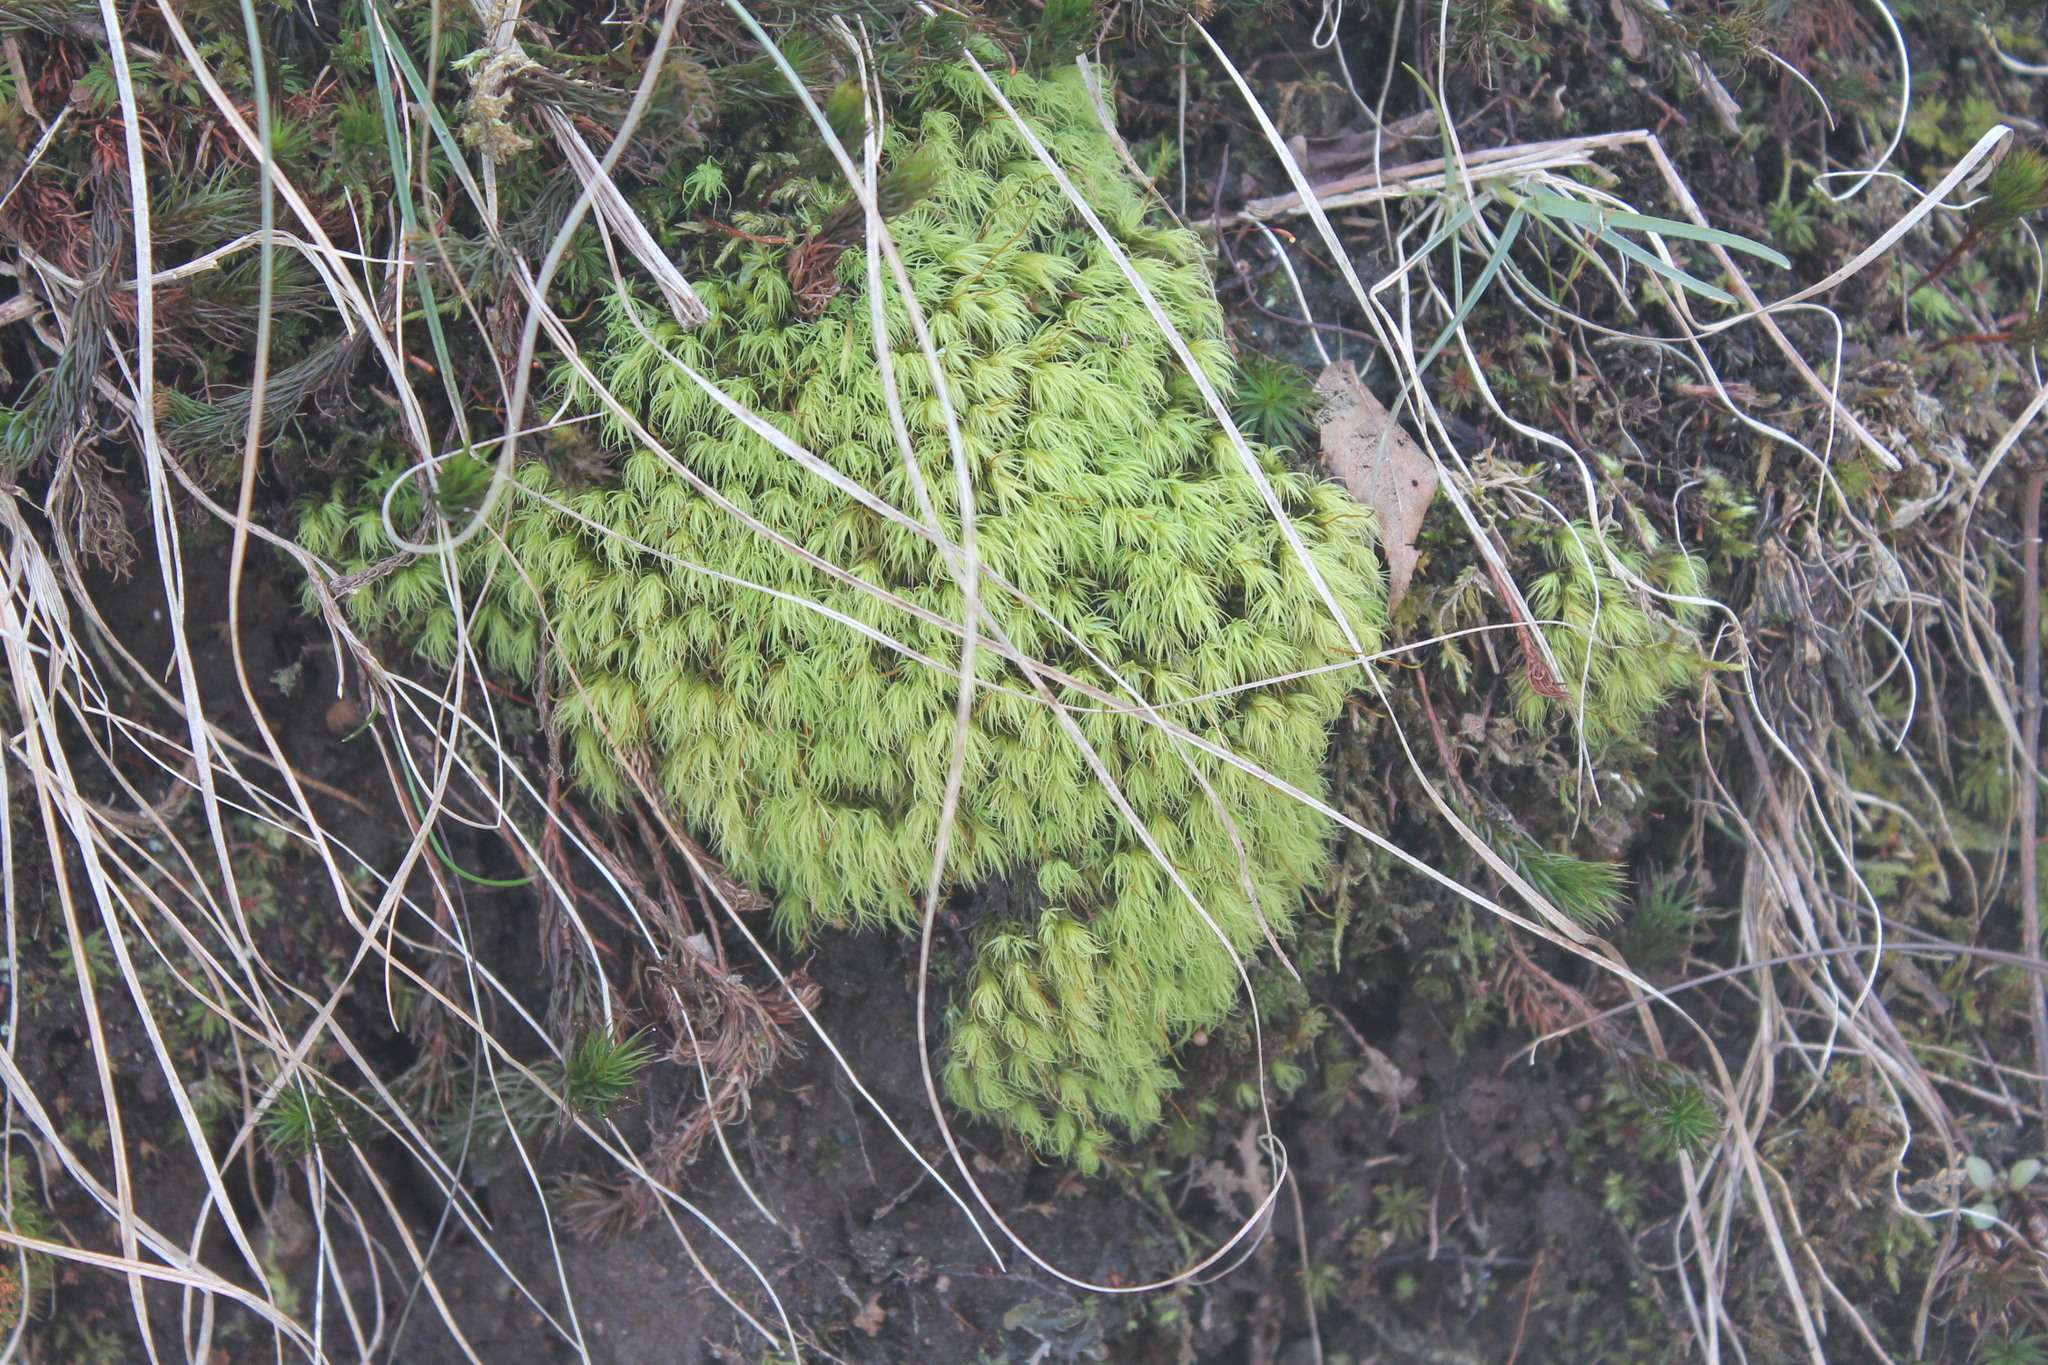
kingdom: Plantae
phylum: Bryophyta
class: Bryopsida
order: Bartramiales
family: Bartramiaceae
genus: Bartramia
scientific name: Bartramia ithyphylla
